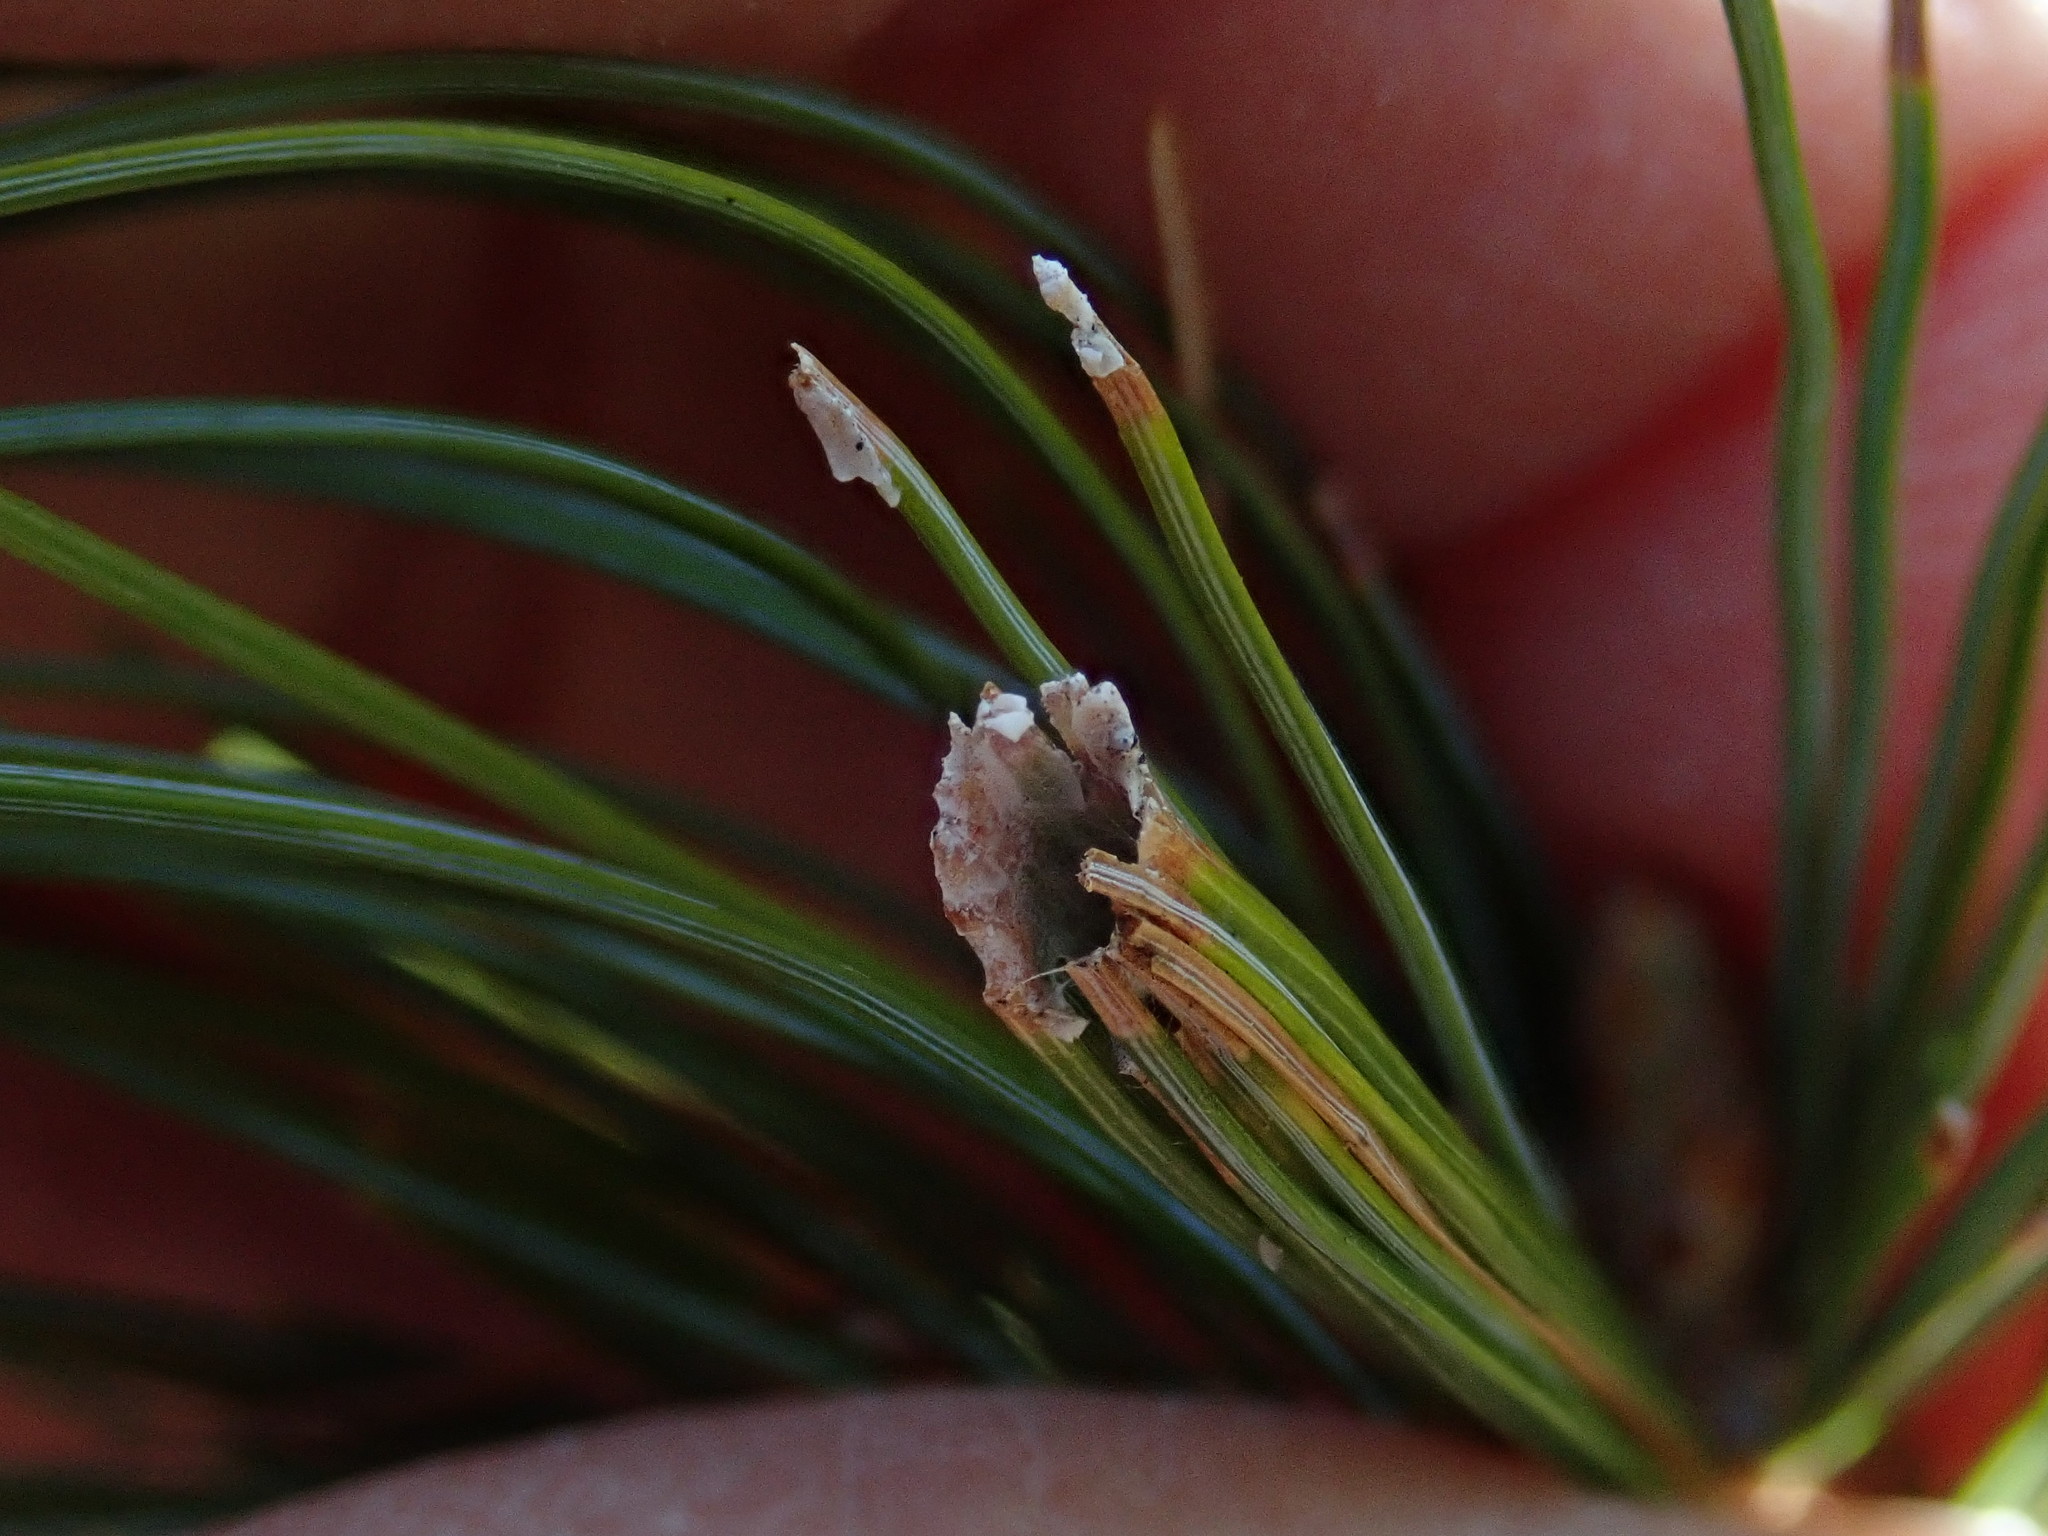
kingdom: Animalia
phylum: Arthropoda
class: Insecta
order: Lepidoptera
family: Tortricidae
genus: Argyrotaenia
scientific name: Argyrotaenia pinatubana
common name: Pine tube moth
